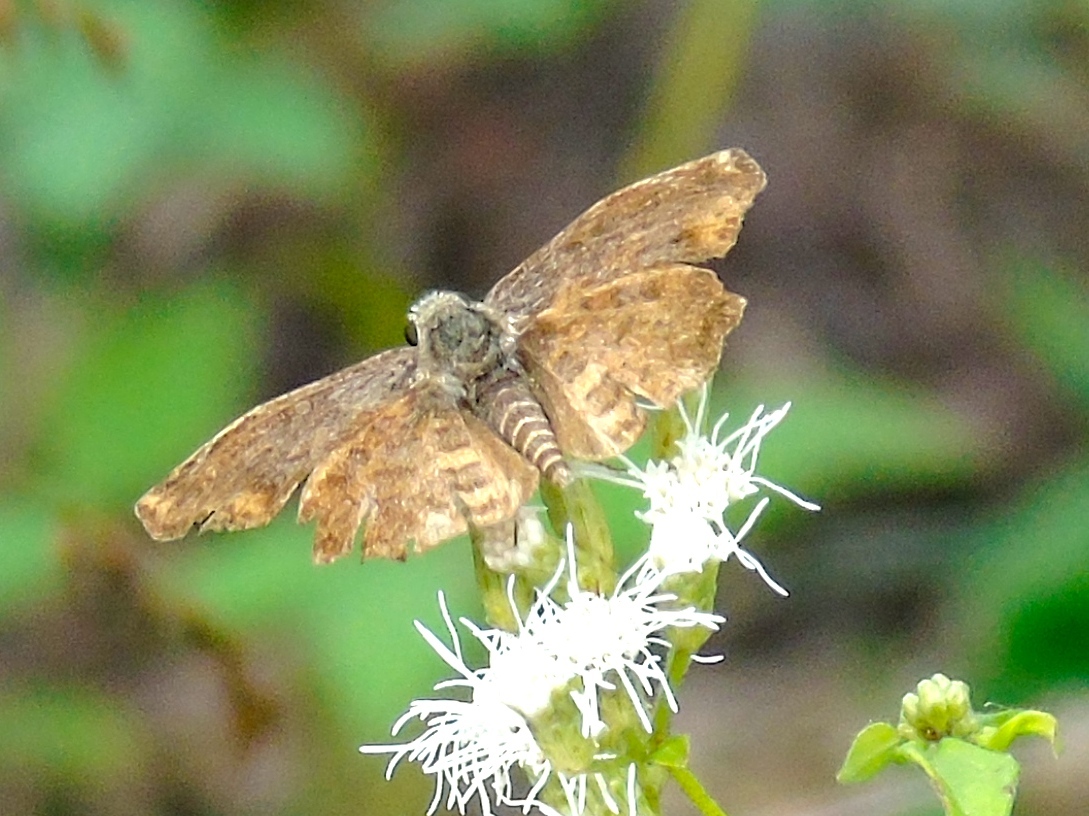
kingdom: Animalia
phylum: Arthropoda
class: Insecta
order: Lepidoptera
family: Hesperiidae
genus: Pyrginae
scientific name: Pyrginae
